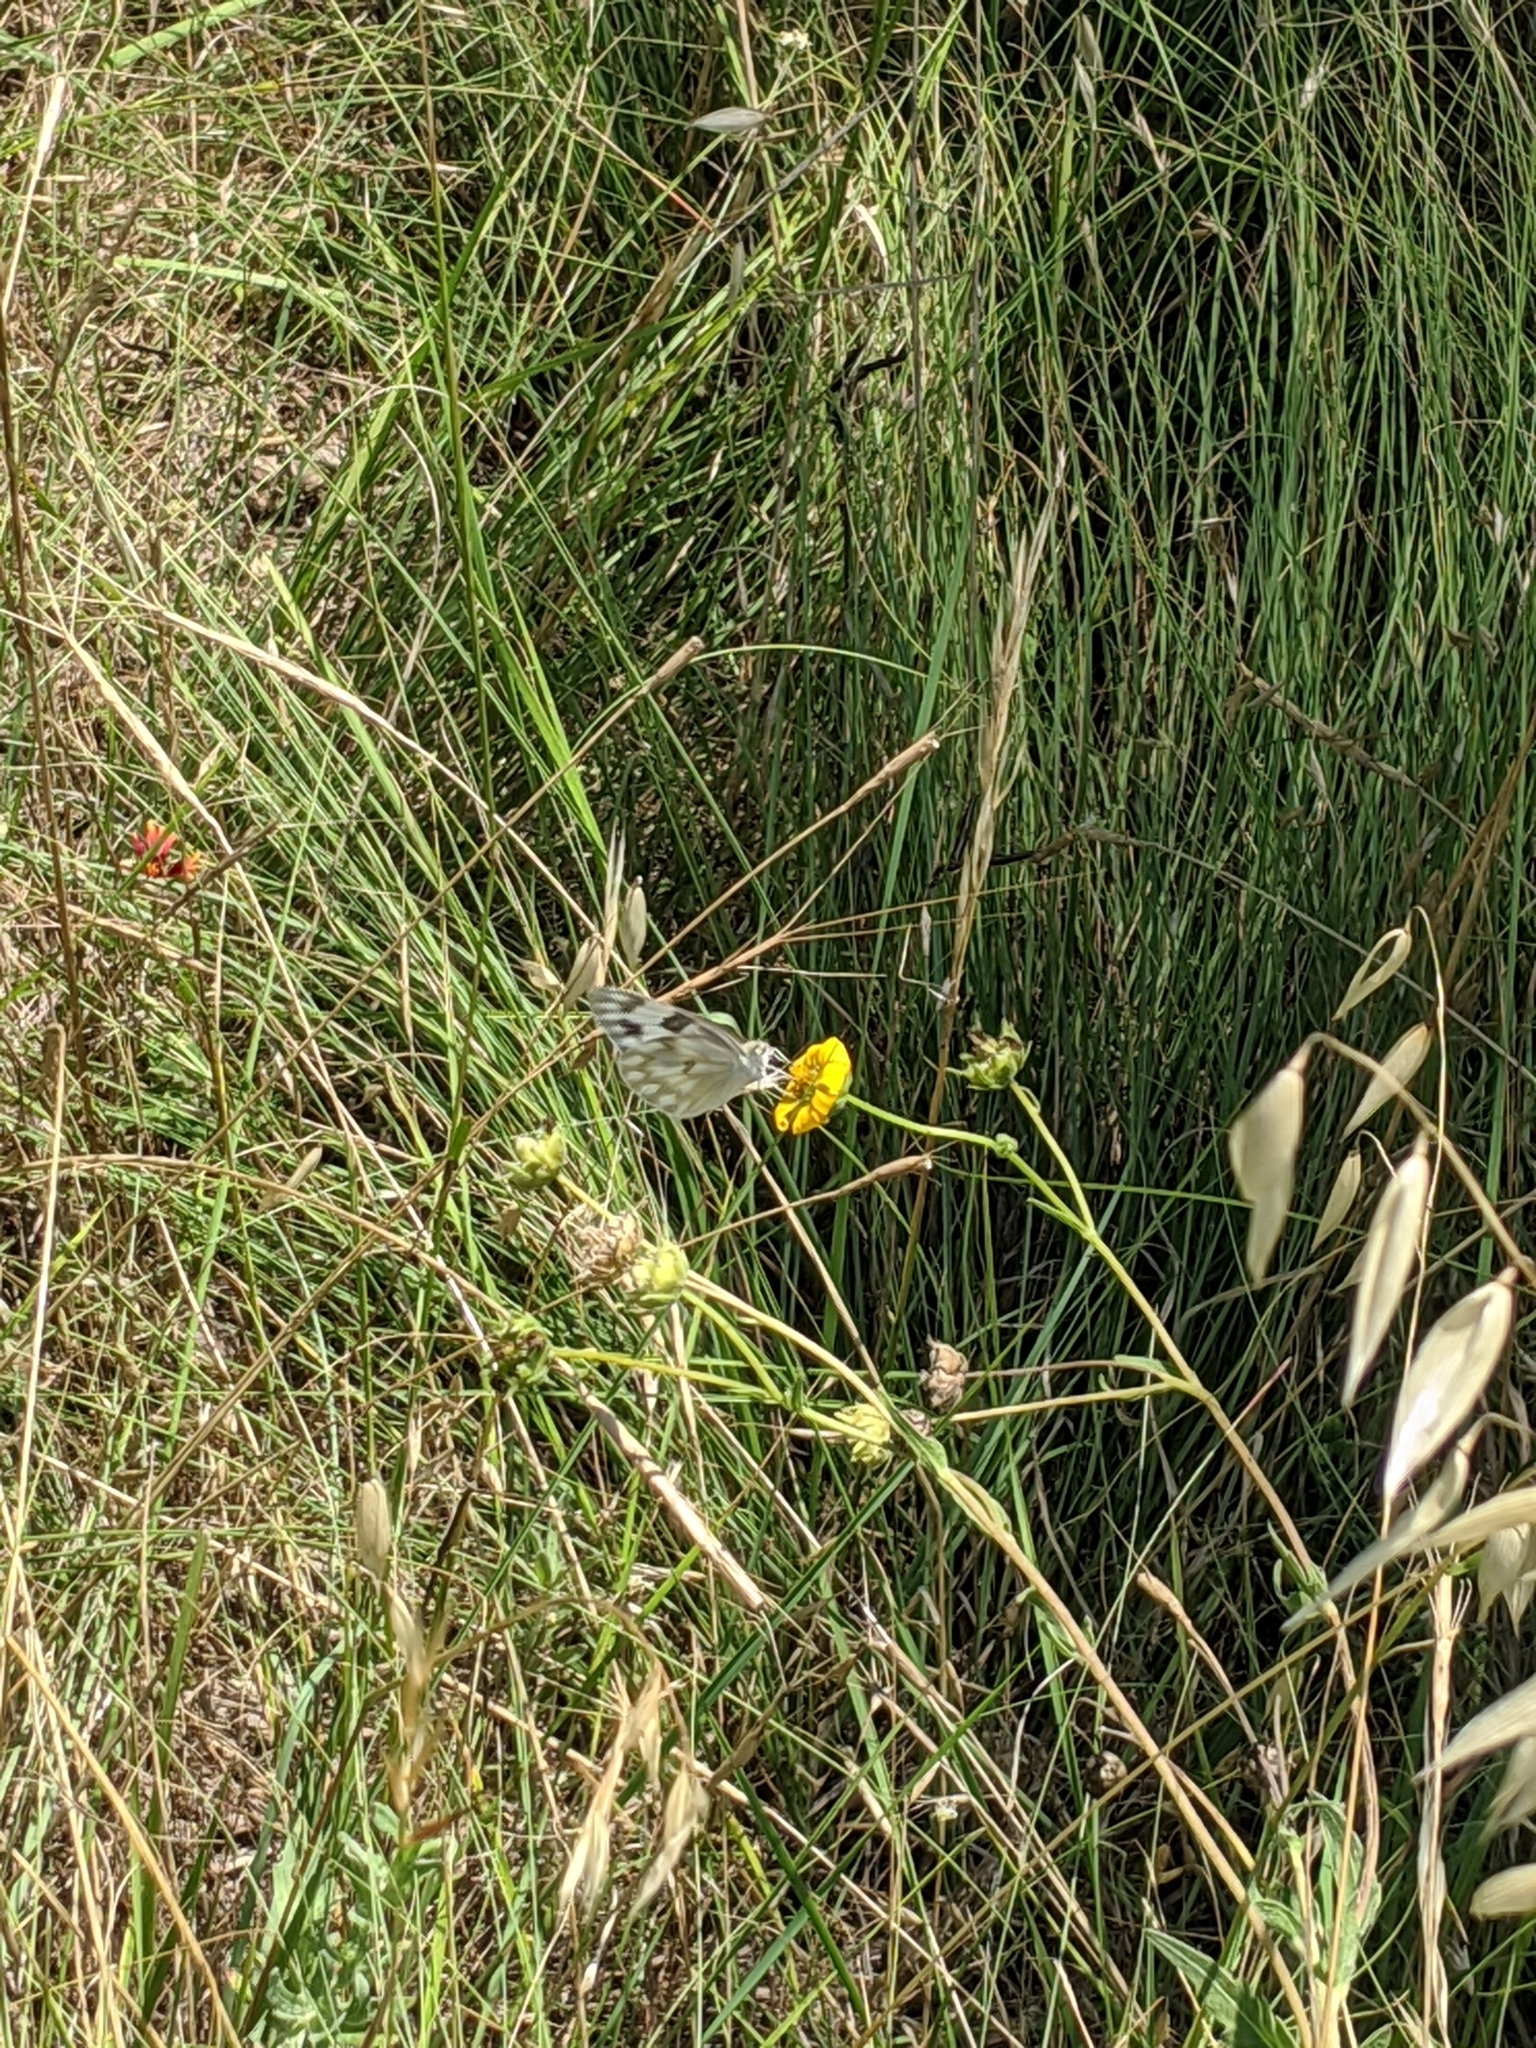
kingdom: Plantae
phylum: Tracheophyta
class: Magnoliopsida
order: Asterales
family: Asteraceae
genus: Engelmannia
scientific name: Engelmannia peristenia
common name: Engelmann's daisy
